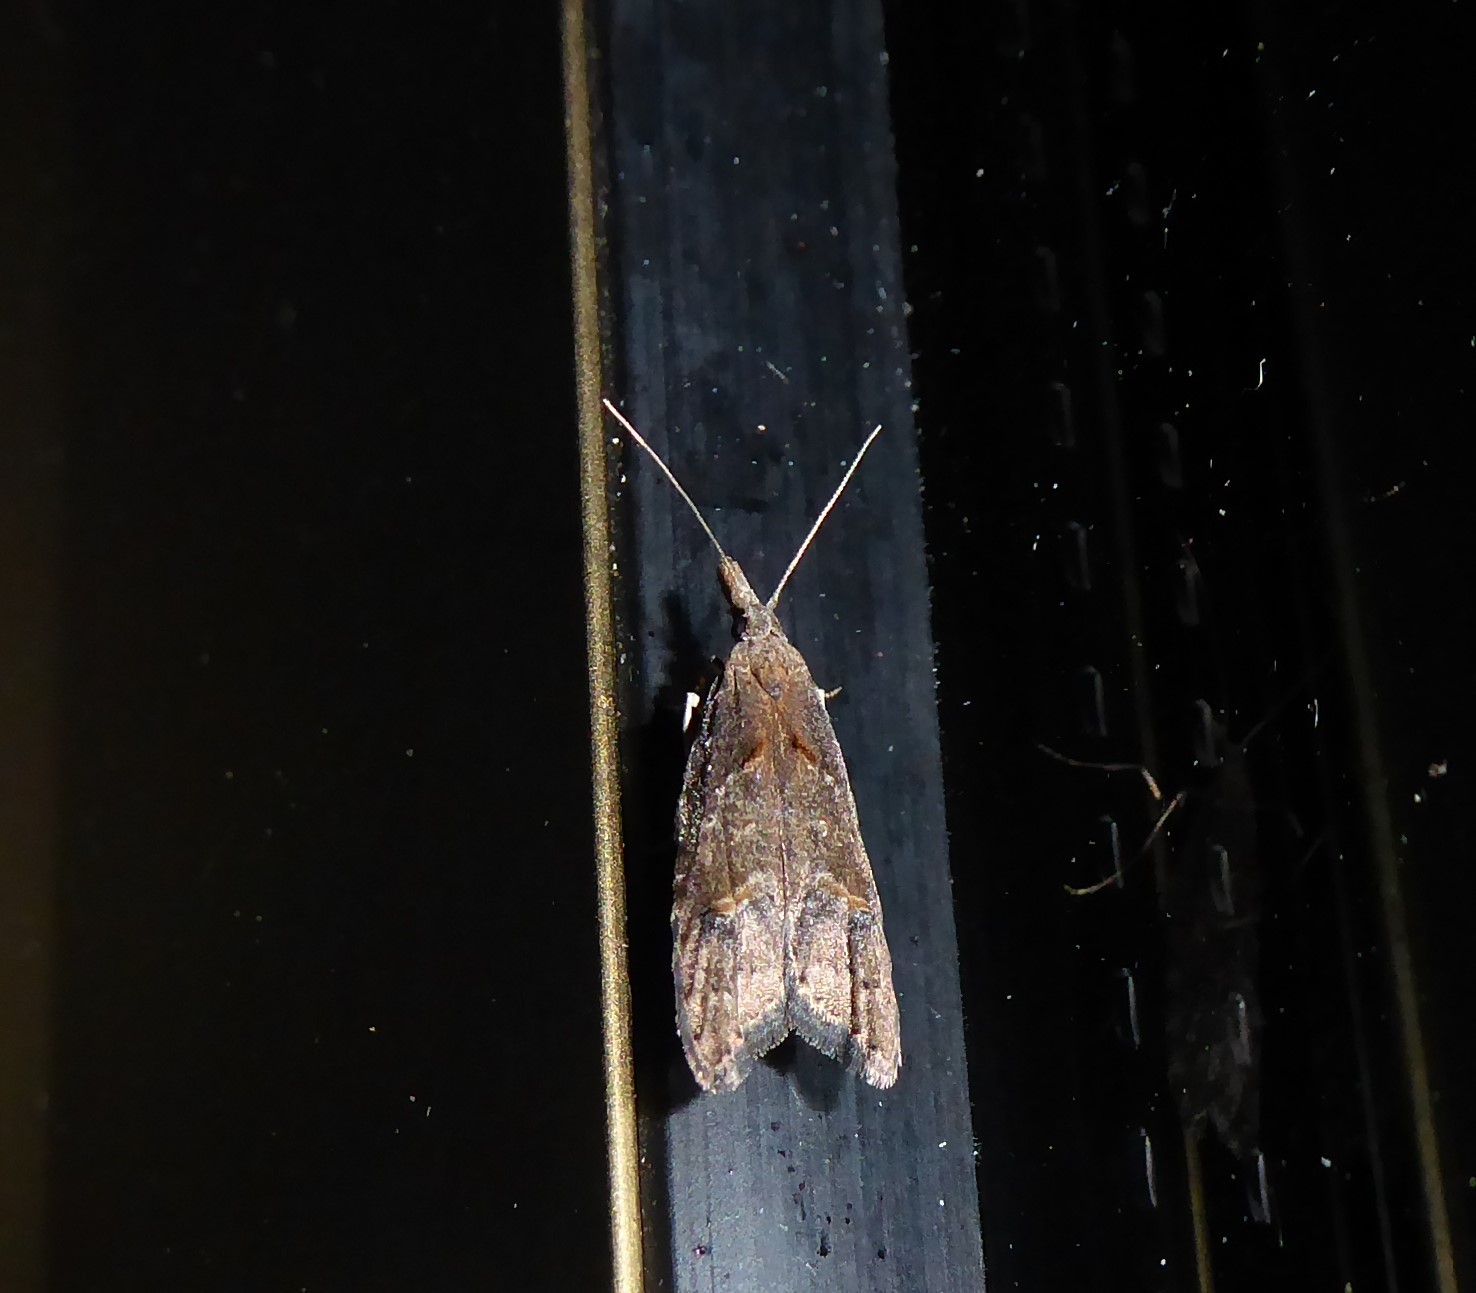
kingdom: Animalia
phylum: Arthropoda
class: Insecta
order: Lepidoptera
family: Carposinidae
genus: Carposina
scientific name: Carposina rubophaga
